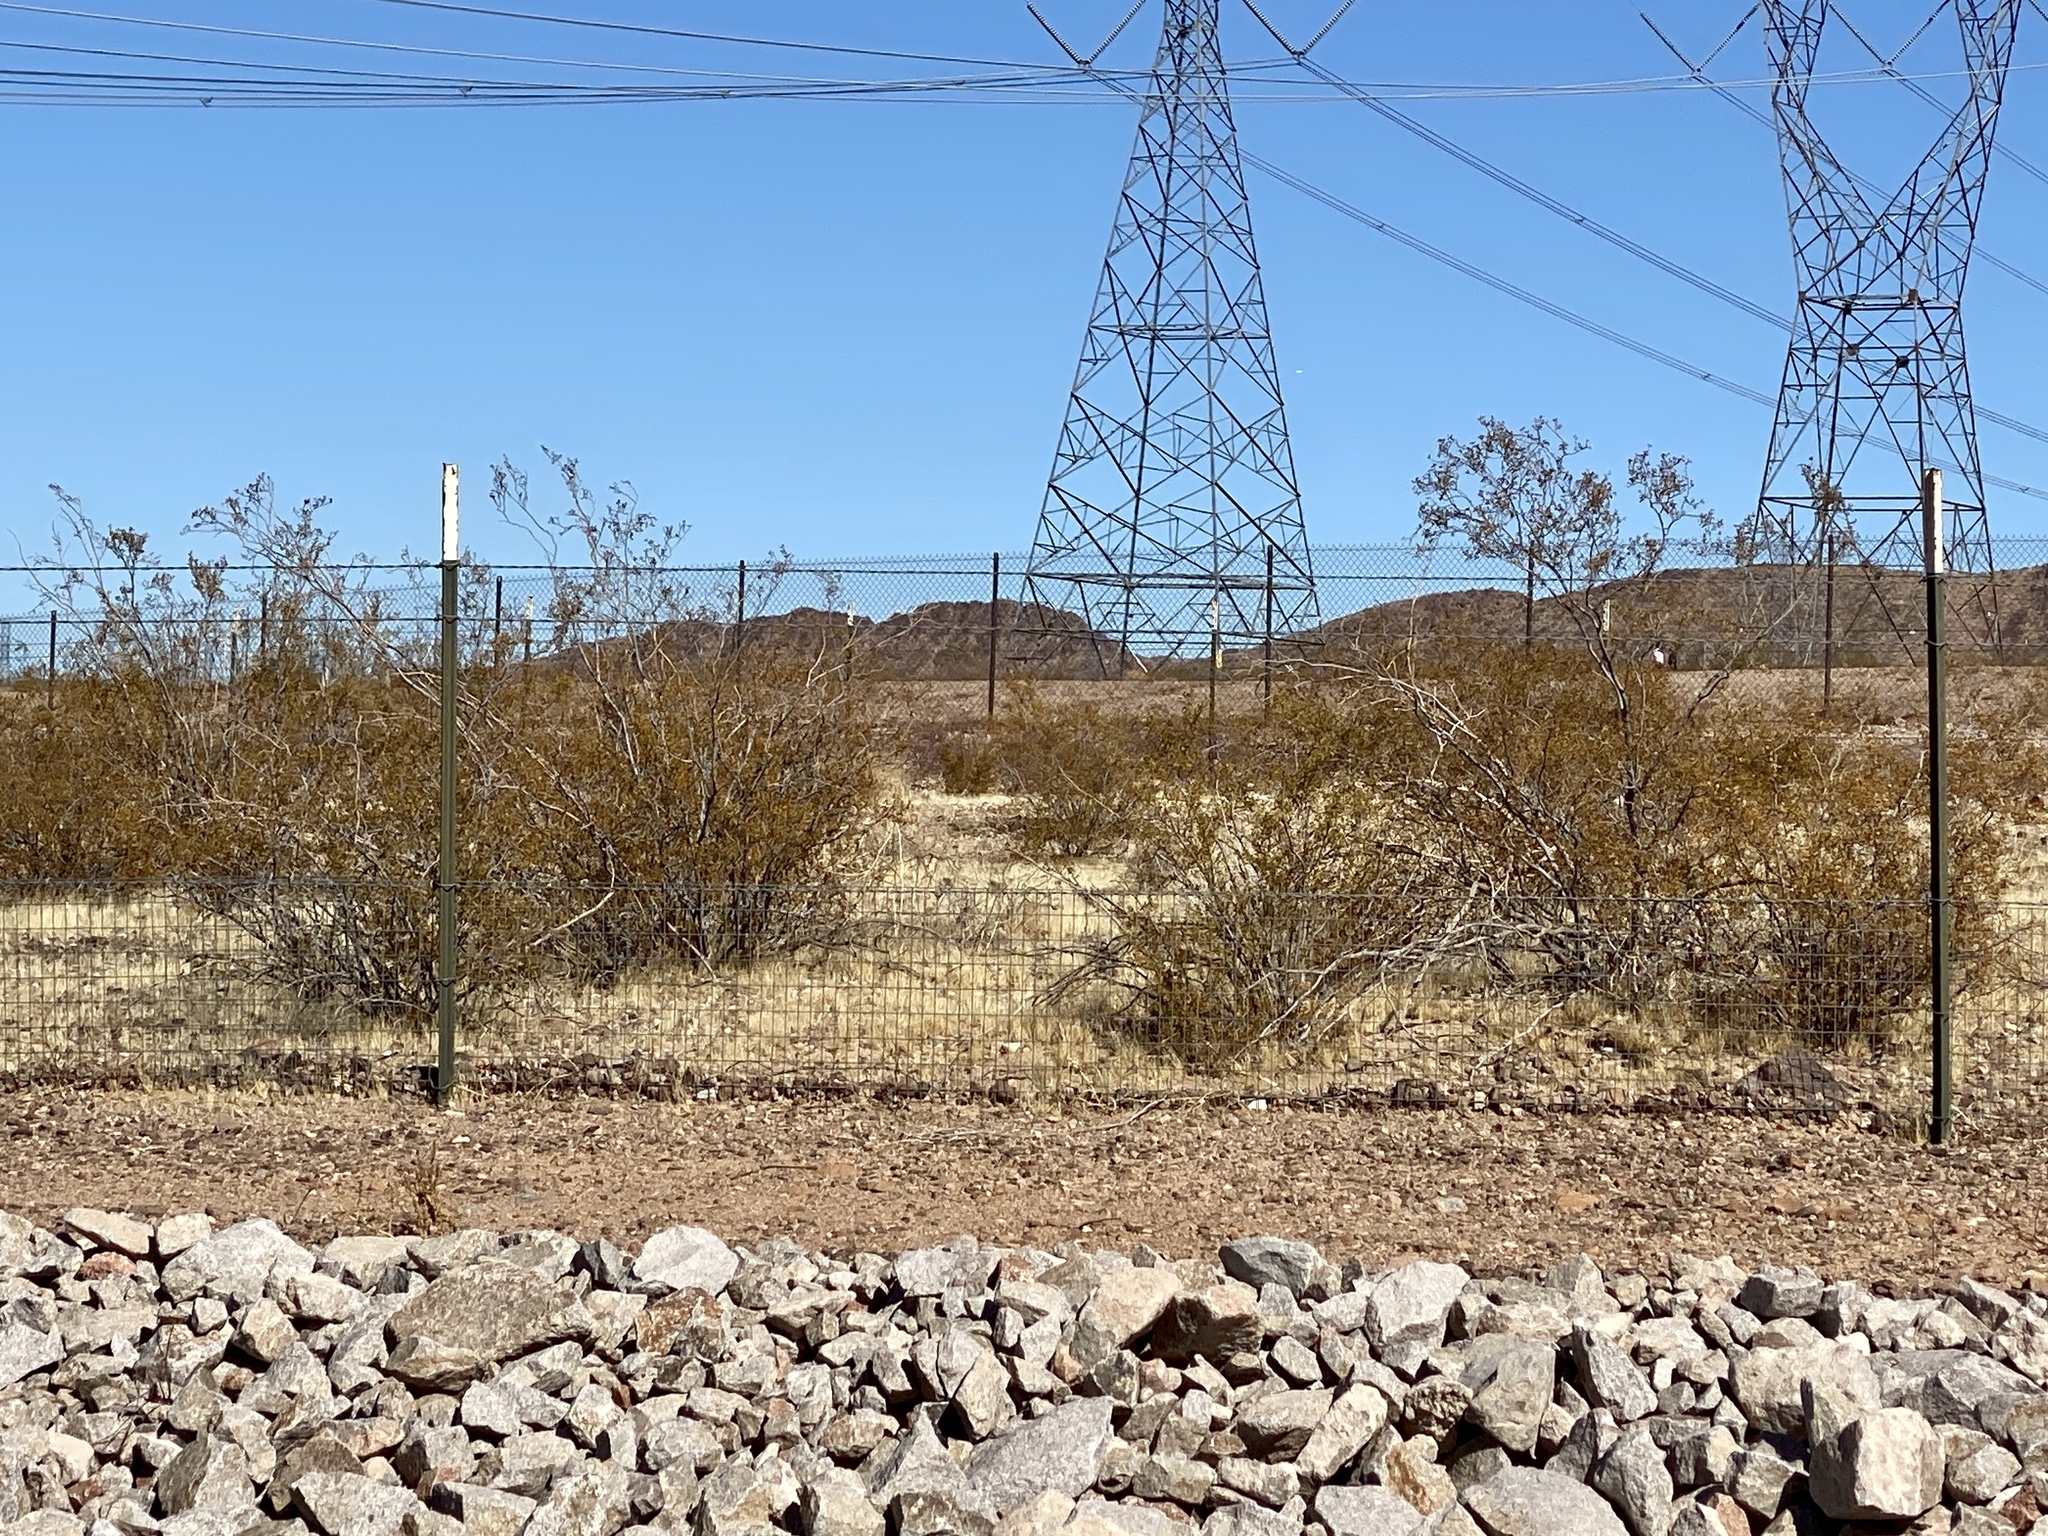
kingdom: Plantae
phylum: Tracheophyta
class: Magnoliopsida
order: Zygophyllales
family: Zygophyllaceae
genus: Larrea
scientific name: Larrea tridentata
